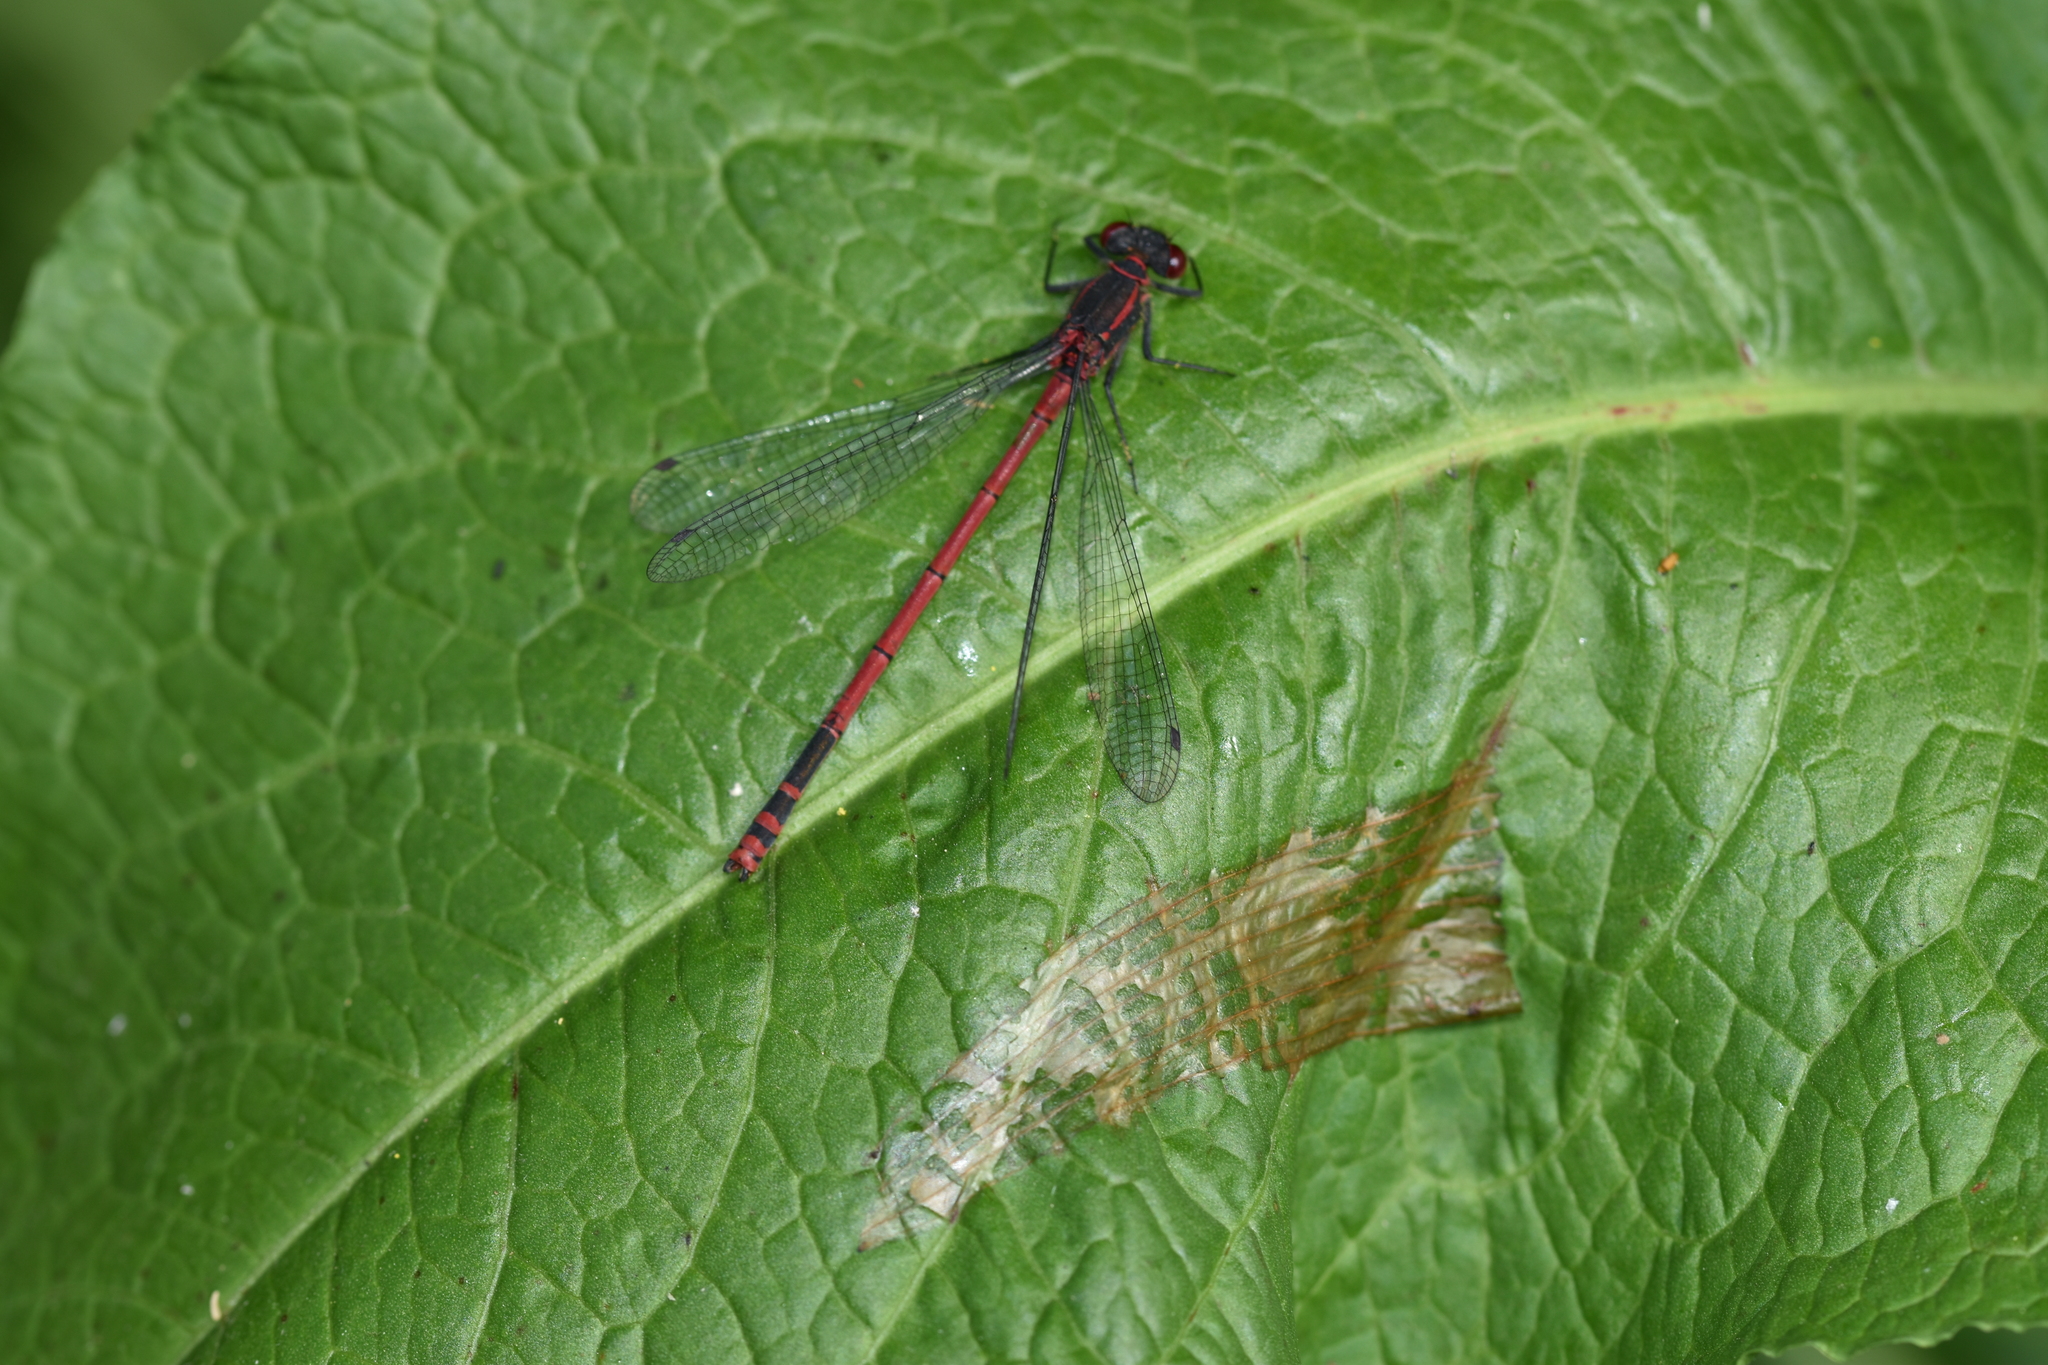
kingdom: Animalia
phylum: Arthropoda
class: Insecta
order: Odonata
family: Coenagrionidae
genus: Pyrrhosoma
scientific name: Pyrrhosoma nymphula
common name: Large red damsel
